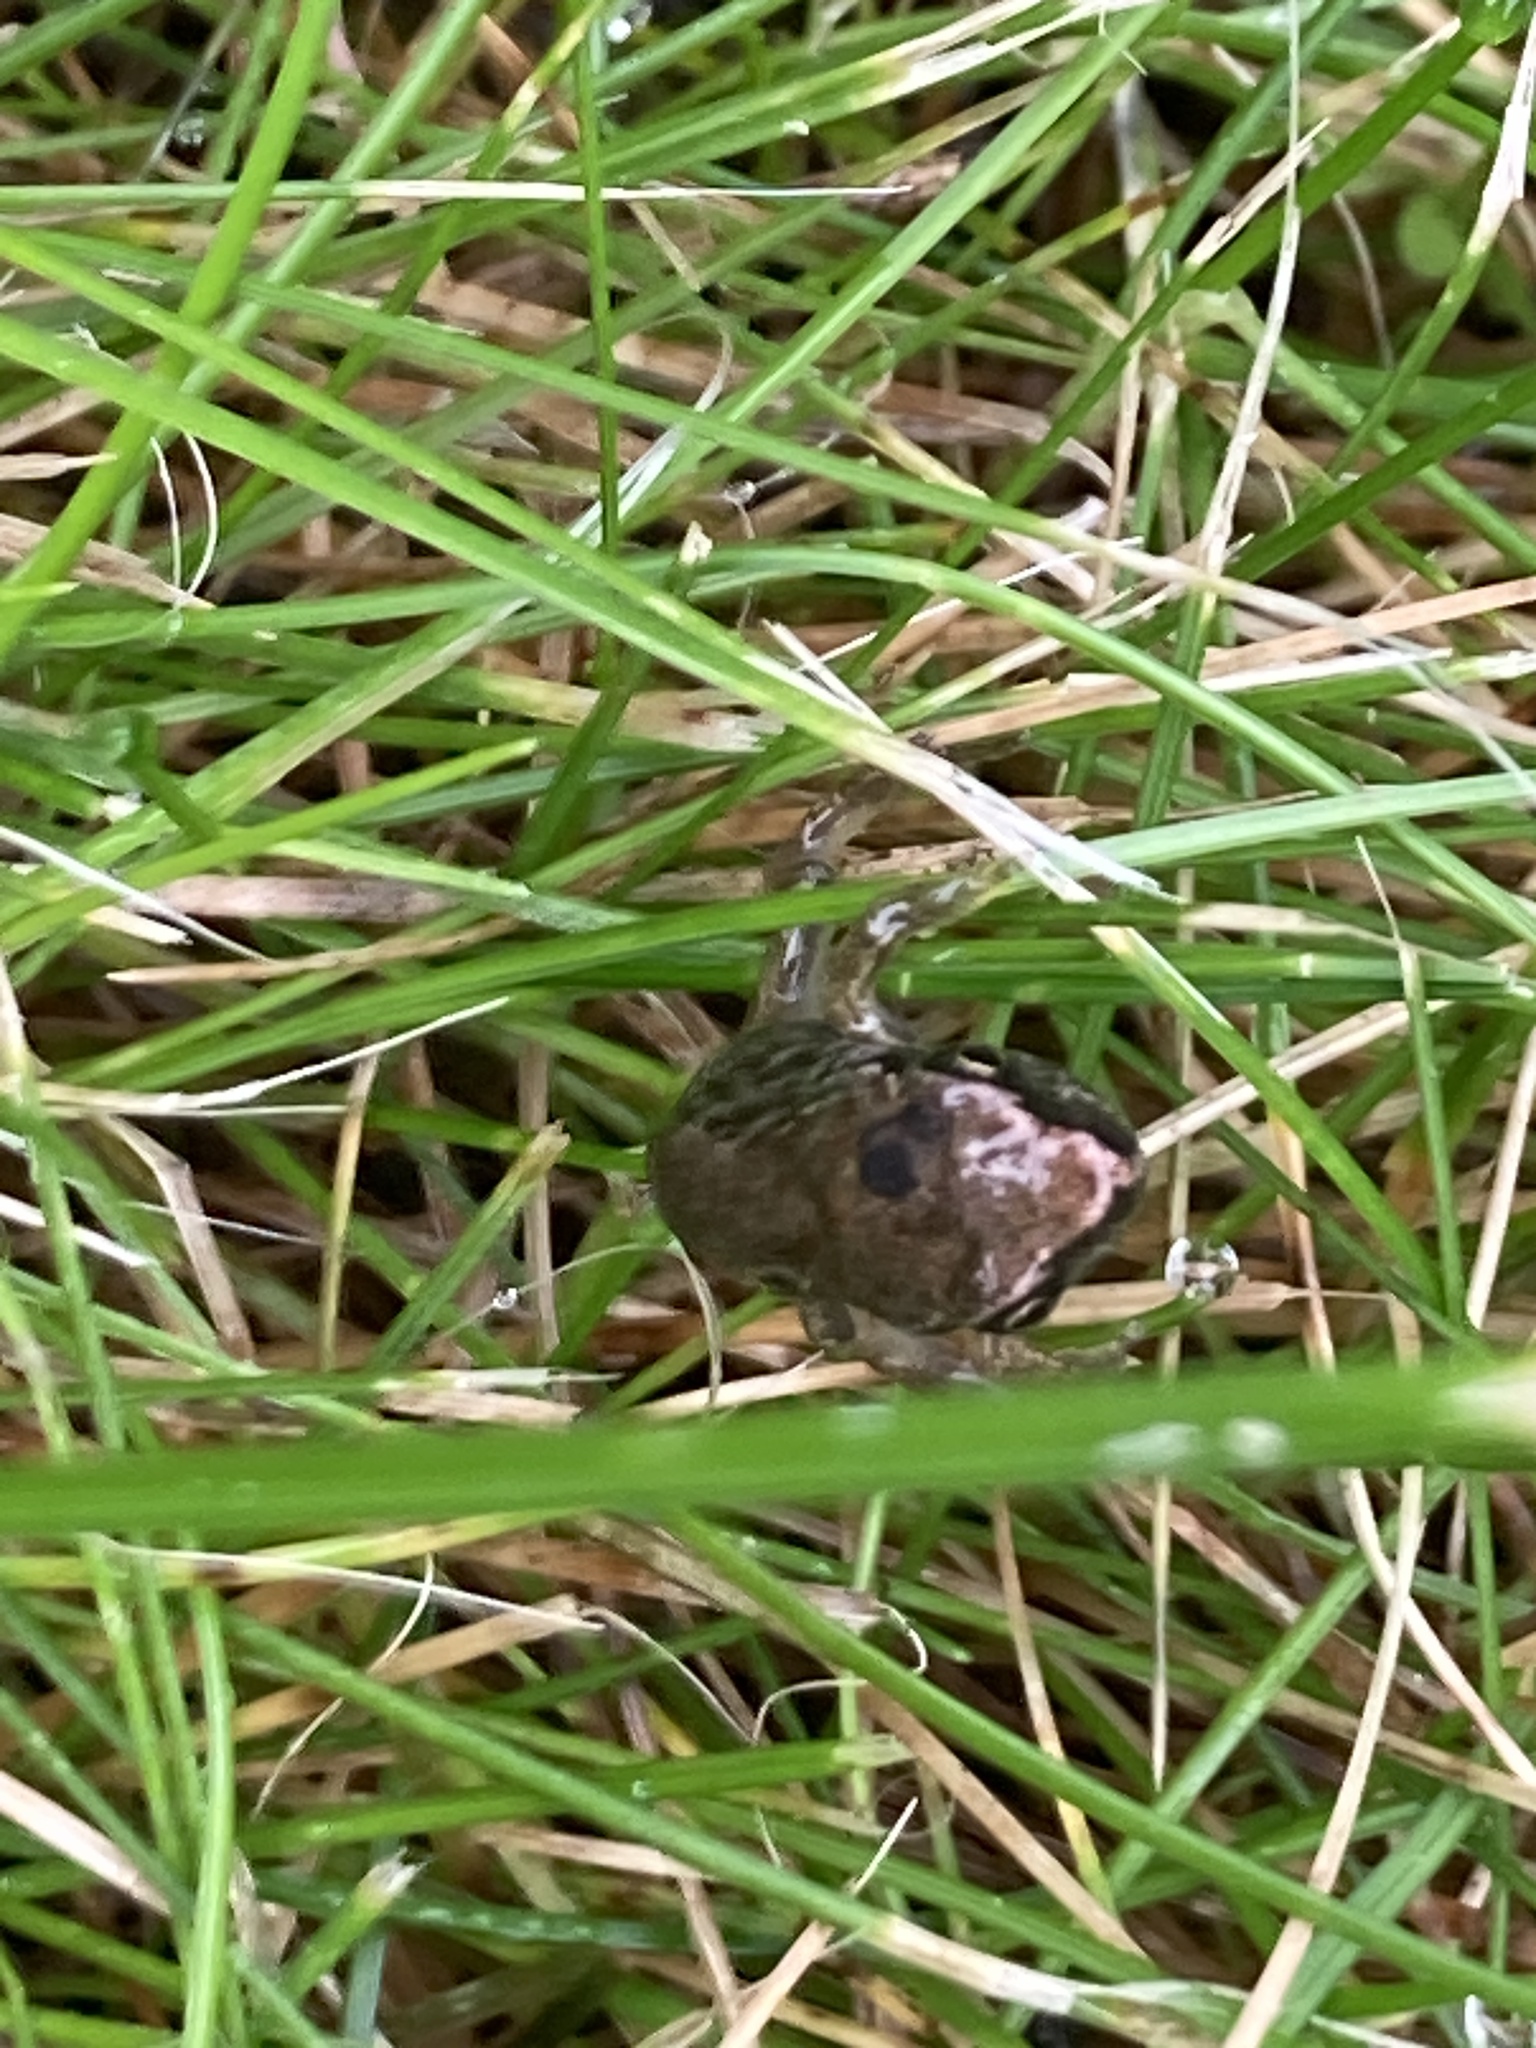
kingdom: Animalia
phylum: Chordata
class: Amphibia
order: Anura
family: Ranidae
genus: Rana
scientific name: Rana temporaria
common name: Common frog
